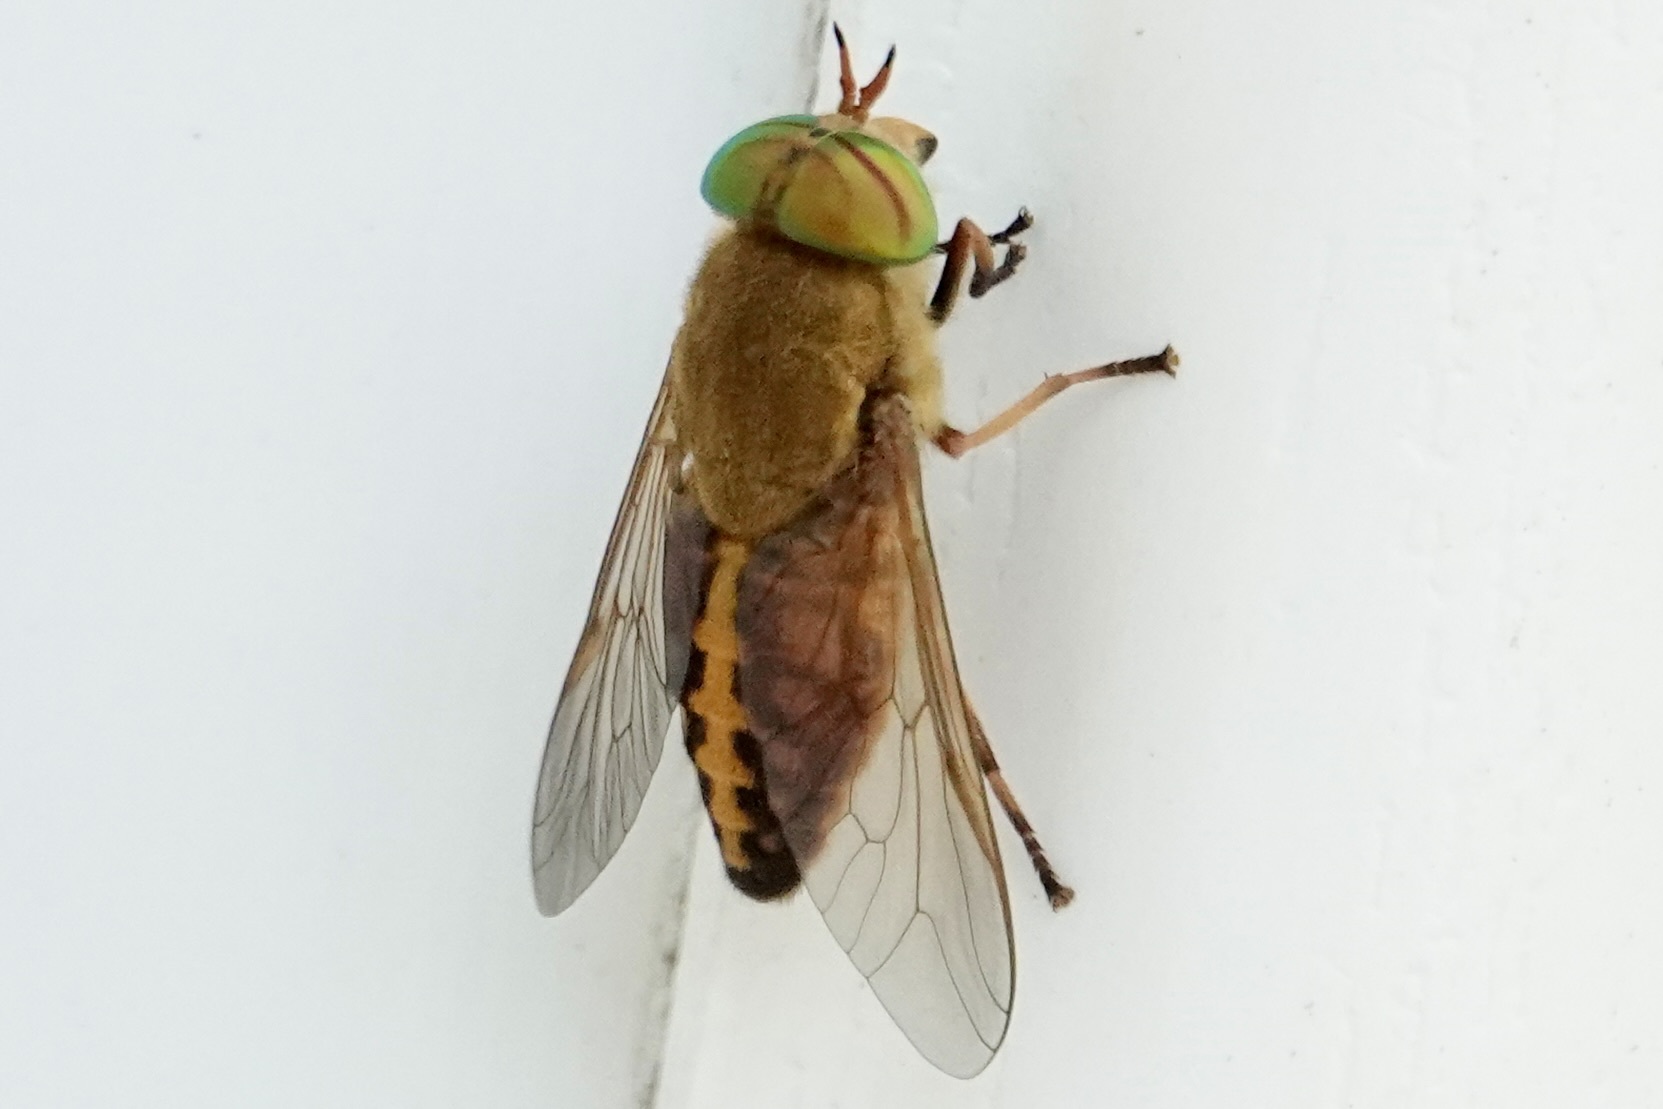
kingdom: Animalia
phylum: Arthropoda
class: Insecta
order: Diptera
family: Tabanidae
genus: Tabanus
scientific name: Tabanus fulvulus
